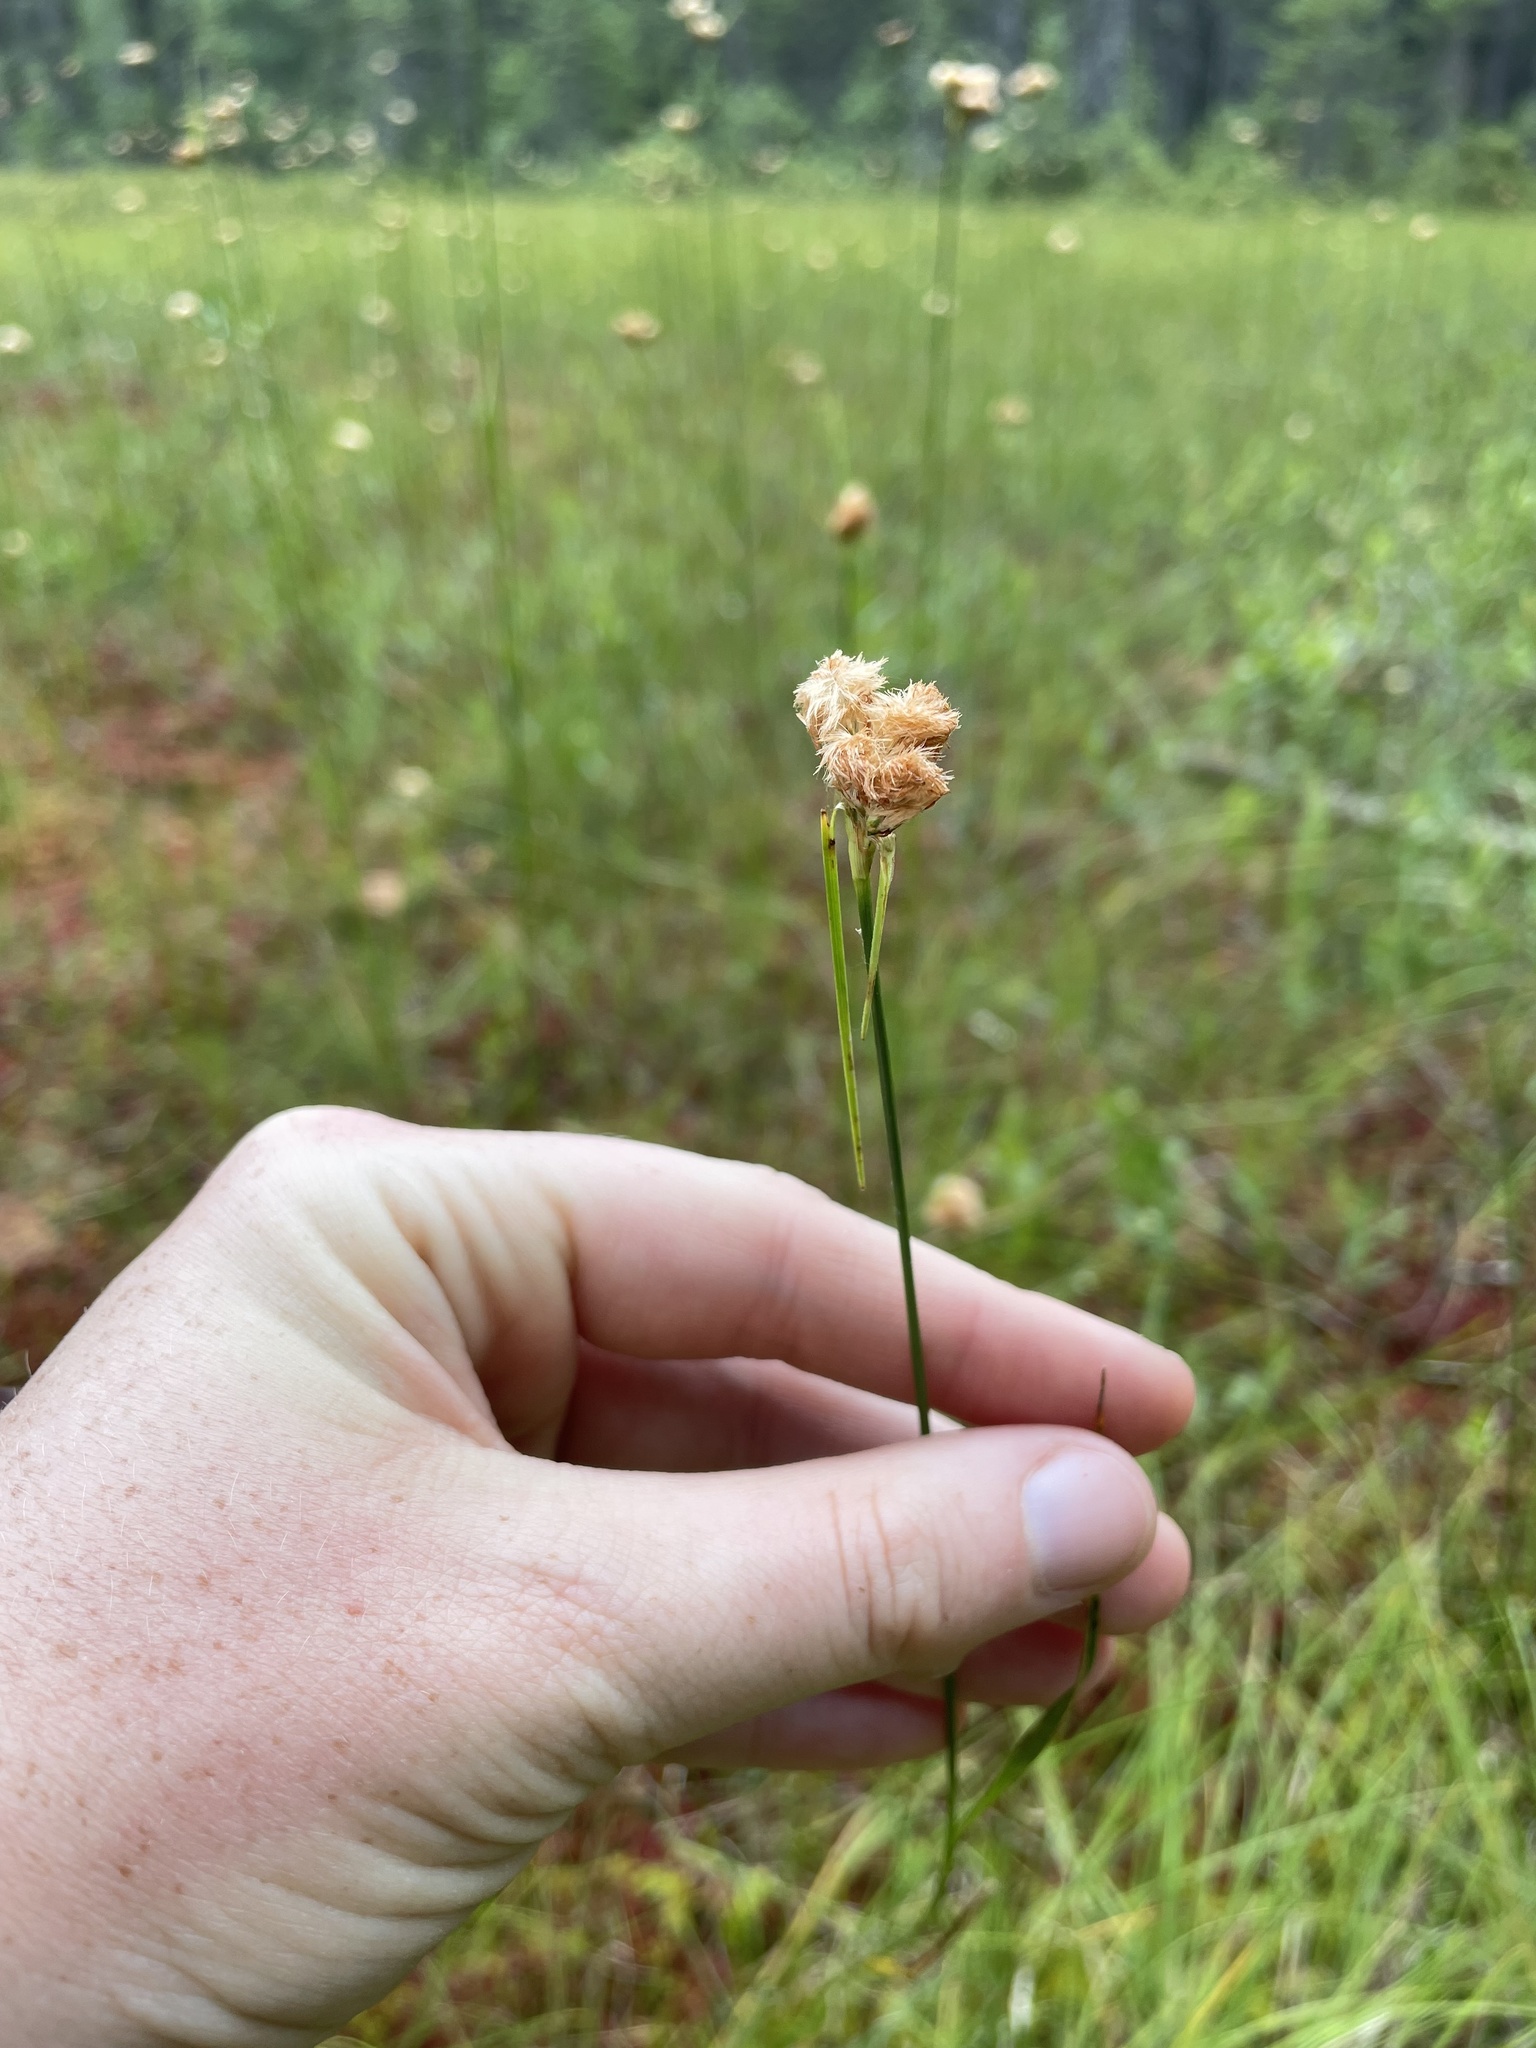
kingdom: Plantae
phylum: Tracheophyta
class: Liliopsida
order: Poales
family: Cyperaceae
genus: Eriophorum
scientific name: Eriophorum virginicum
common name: Tawny cottongrass
